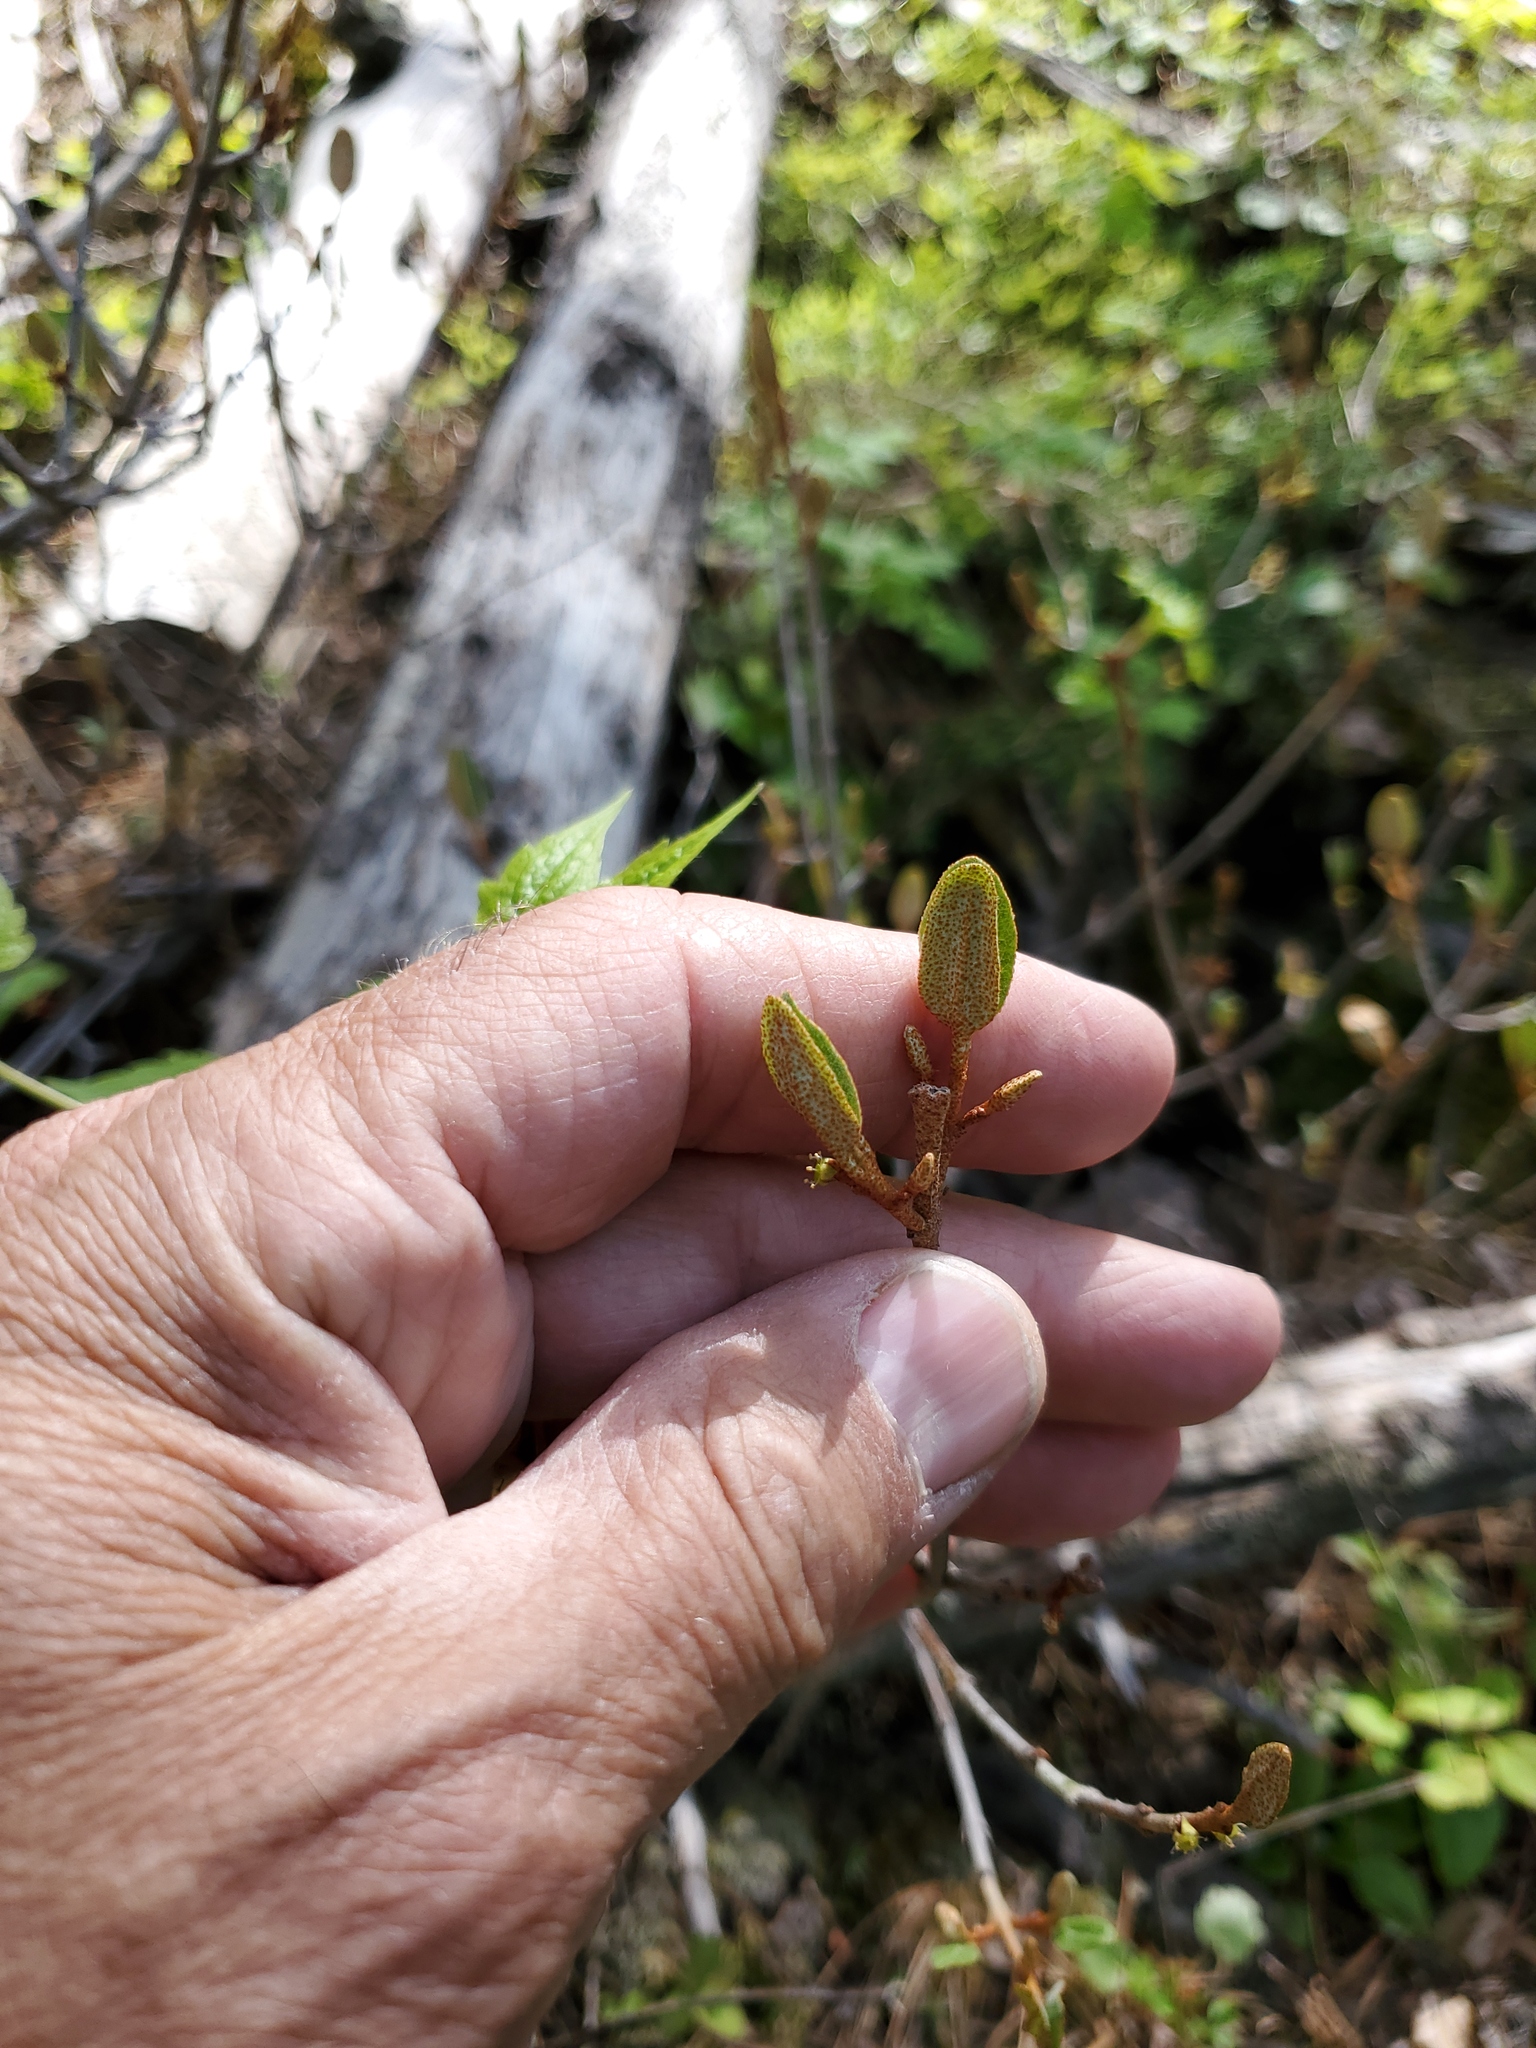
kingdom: Plantae
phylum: Tracheophyta
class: Magnoliopsida
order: Rosales
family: Elaeagnaceae
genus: Shepherdia
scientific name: Shepherdia canadensis
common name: Soapberry
